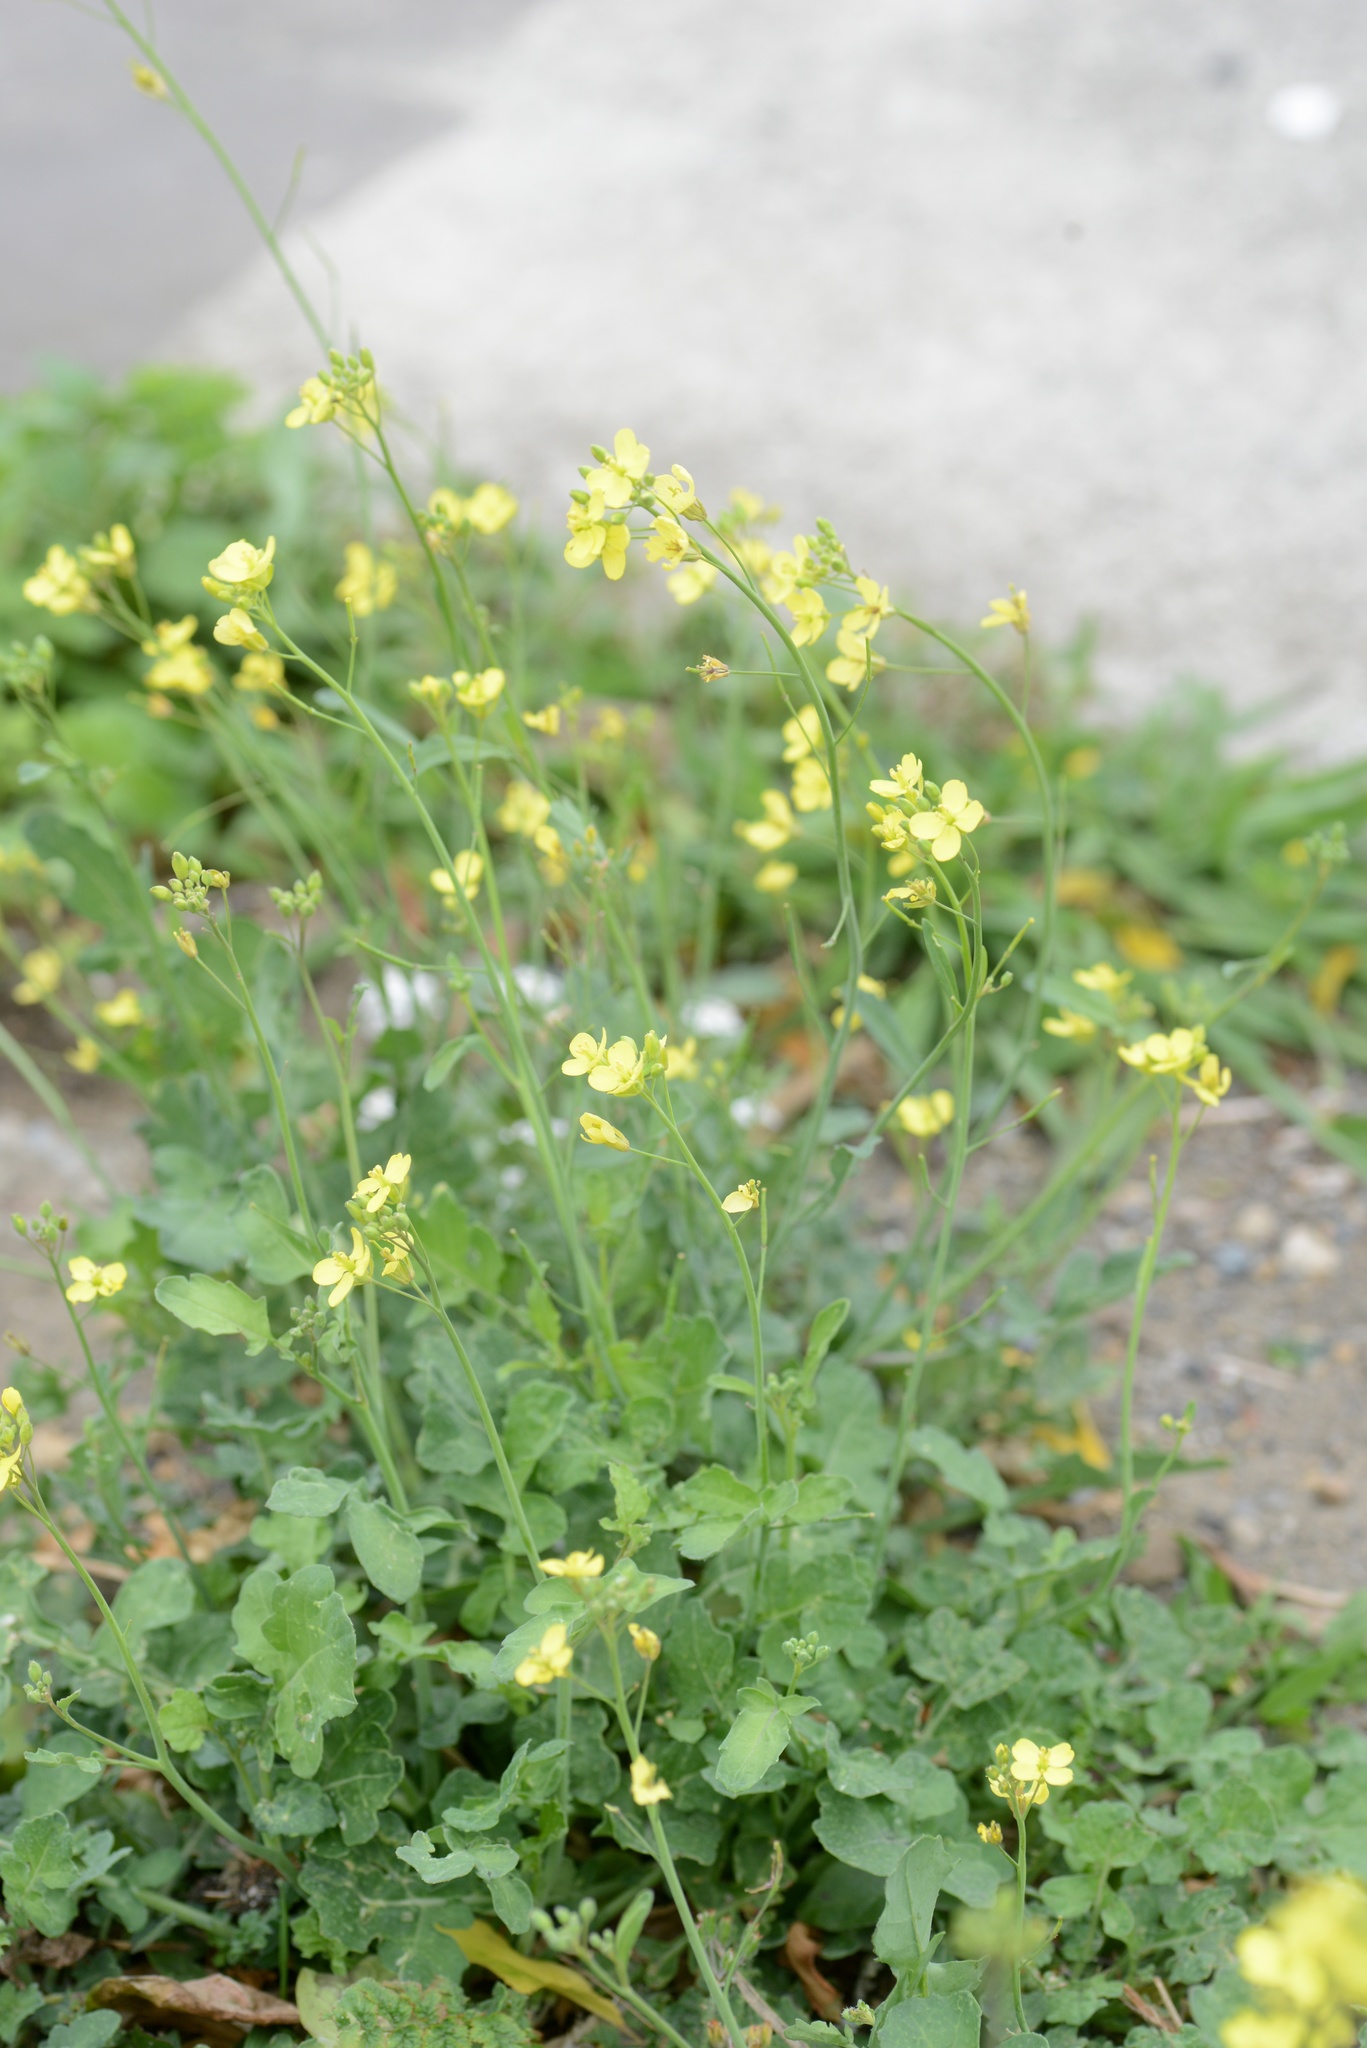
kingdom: Plantae
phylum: Tracheophyta
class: Magnoliopsida
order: Brassicales
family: Brassicaceae
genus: Brassica
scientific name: Brassica fruticulosa
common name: Twiggy turnip
